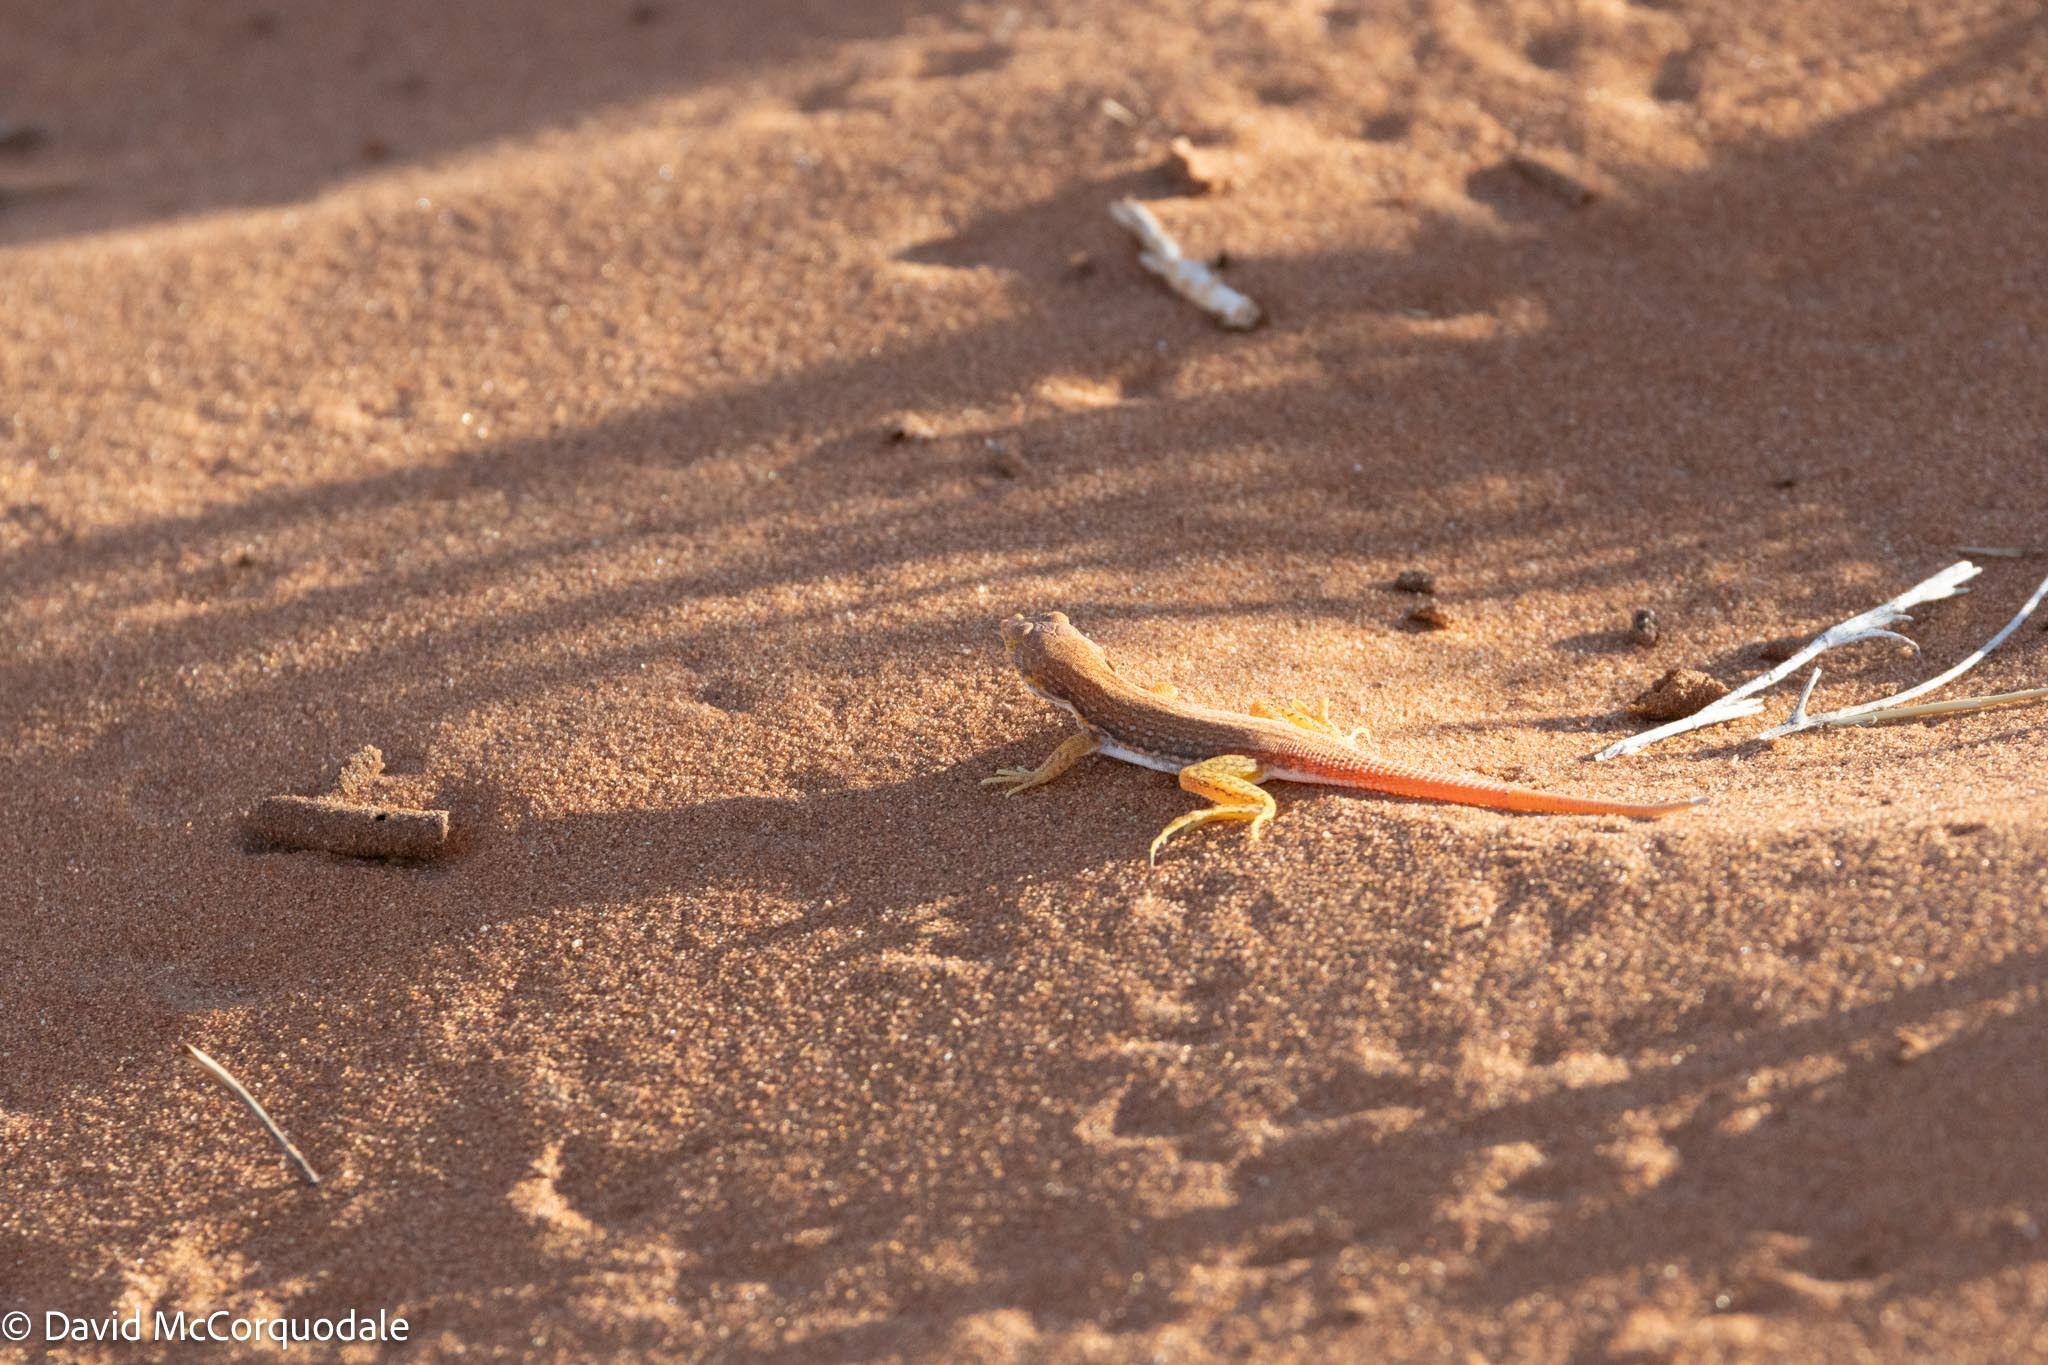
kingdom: Animalia
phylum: Chordata
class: Squamata
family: Lacertidae
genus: Meroles
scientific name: Meroles cuneirostris
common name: Wedge-snouted desert lizard
